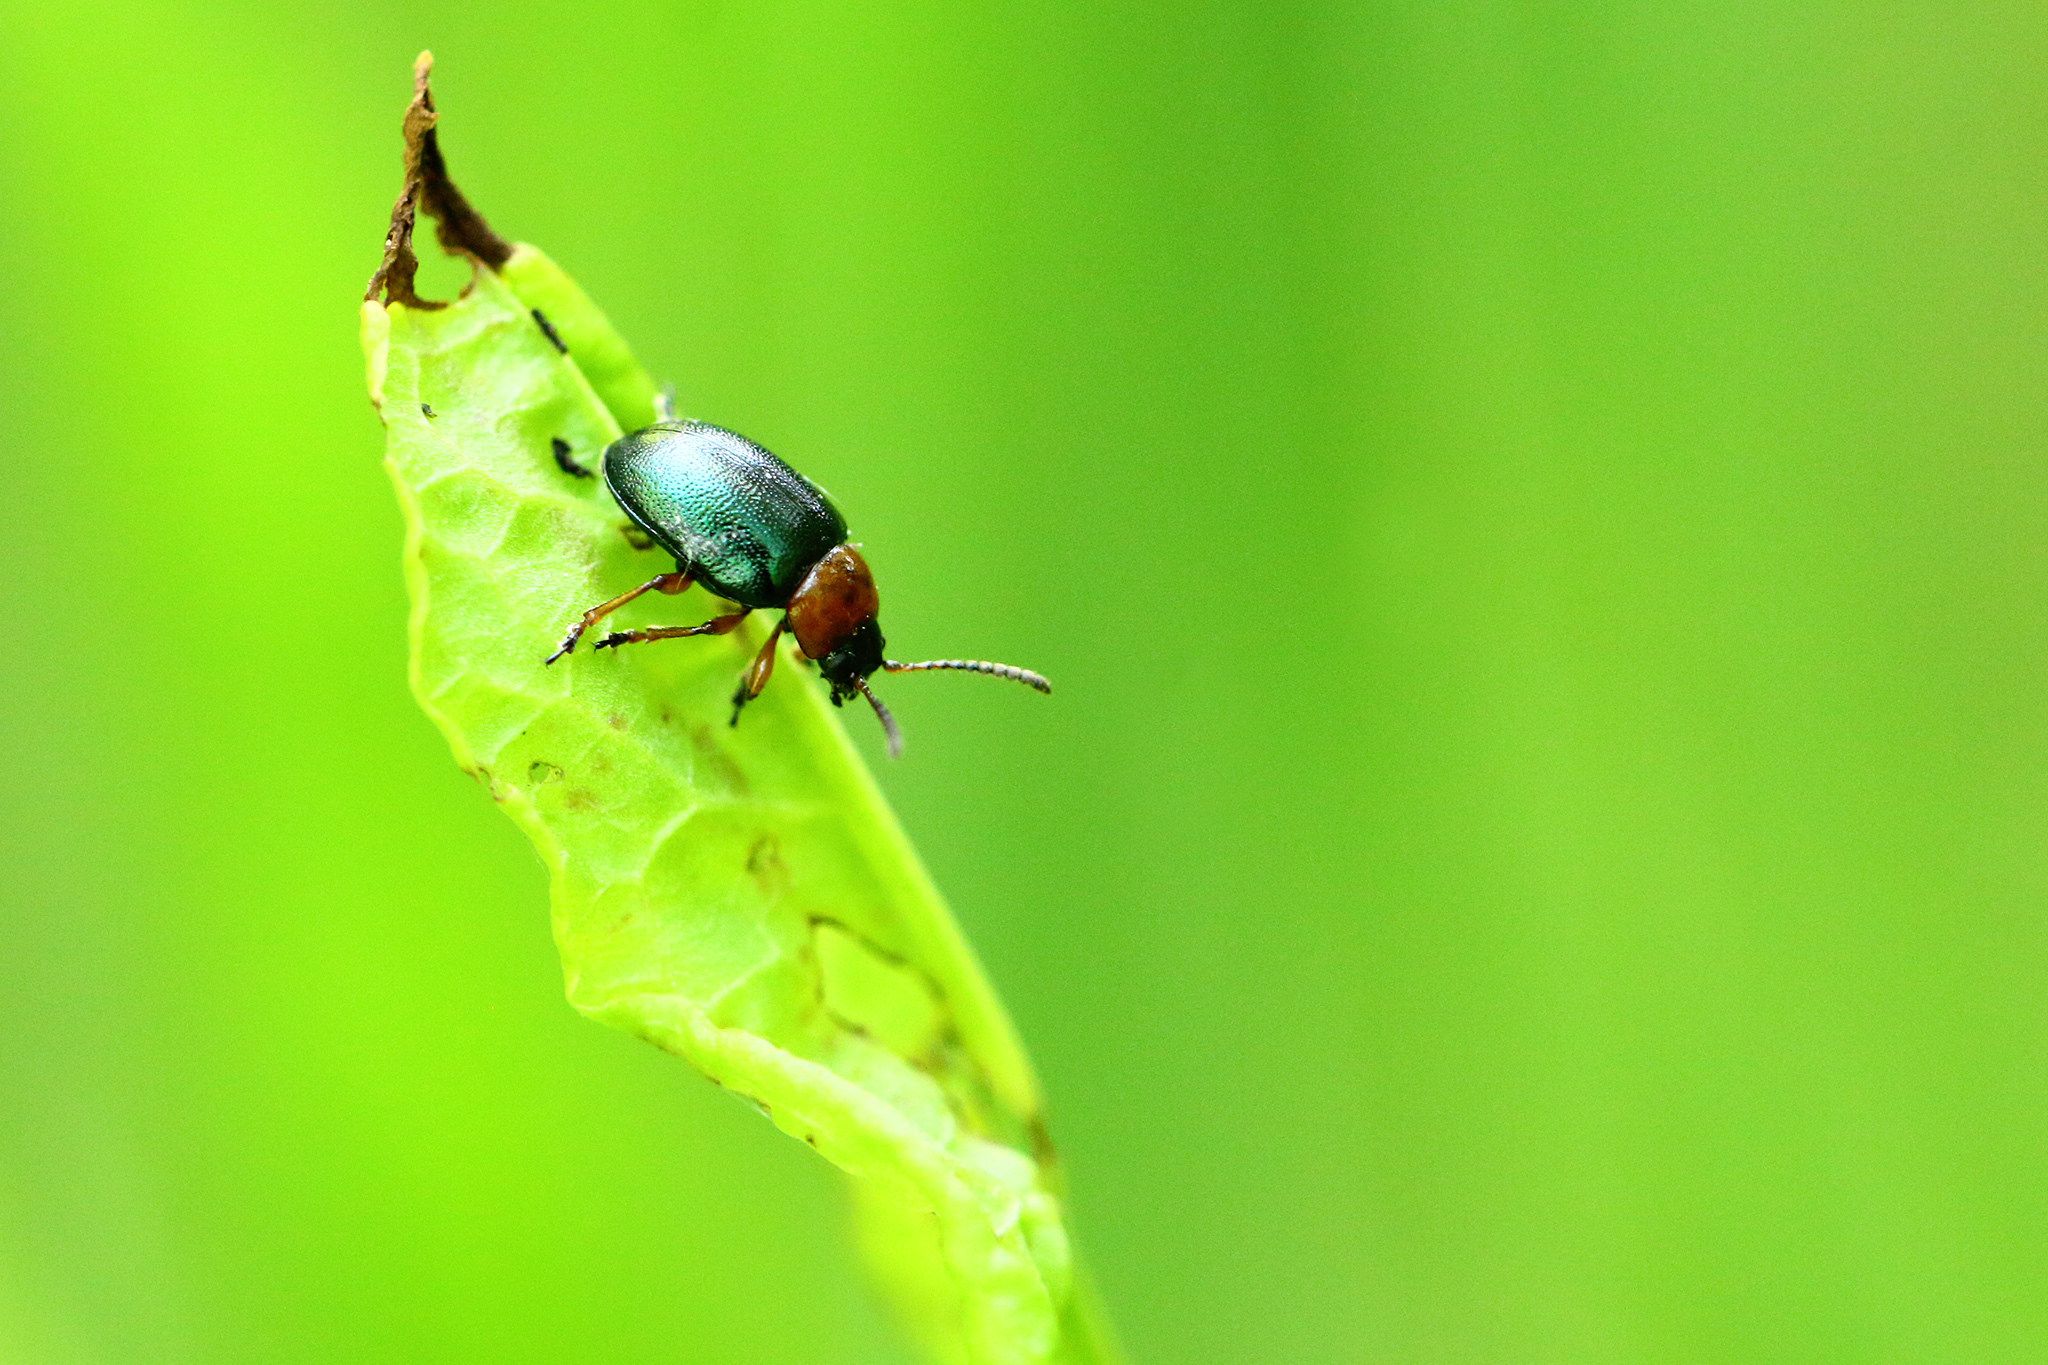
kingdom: Animalia
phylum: Arthropoda
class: Insecta
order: Coleoptera
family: Chrysomelidae
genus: Gastrophysa
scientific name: Gastrophysa polygoni
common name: Knotweed leaf beetle
